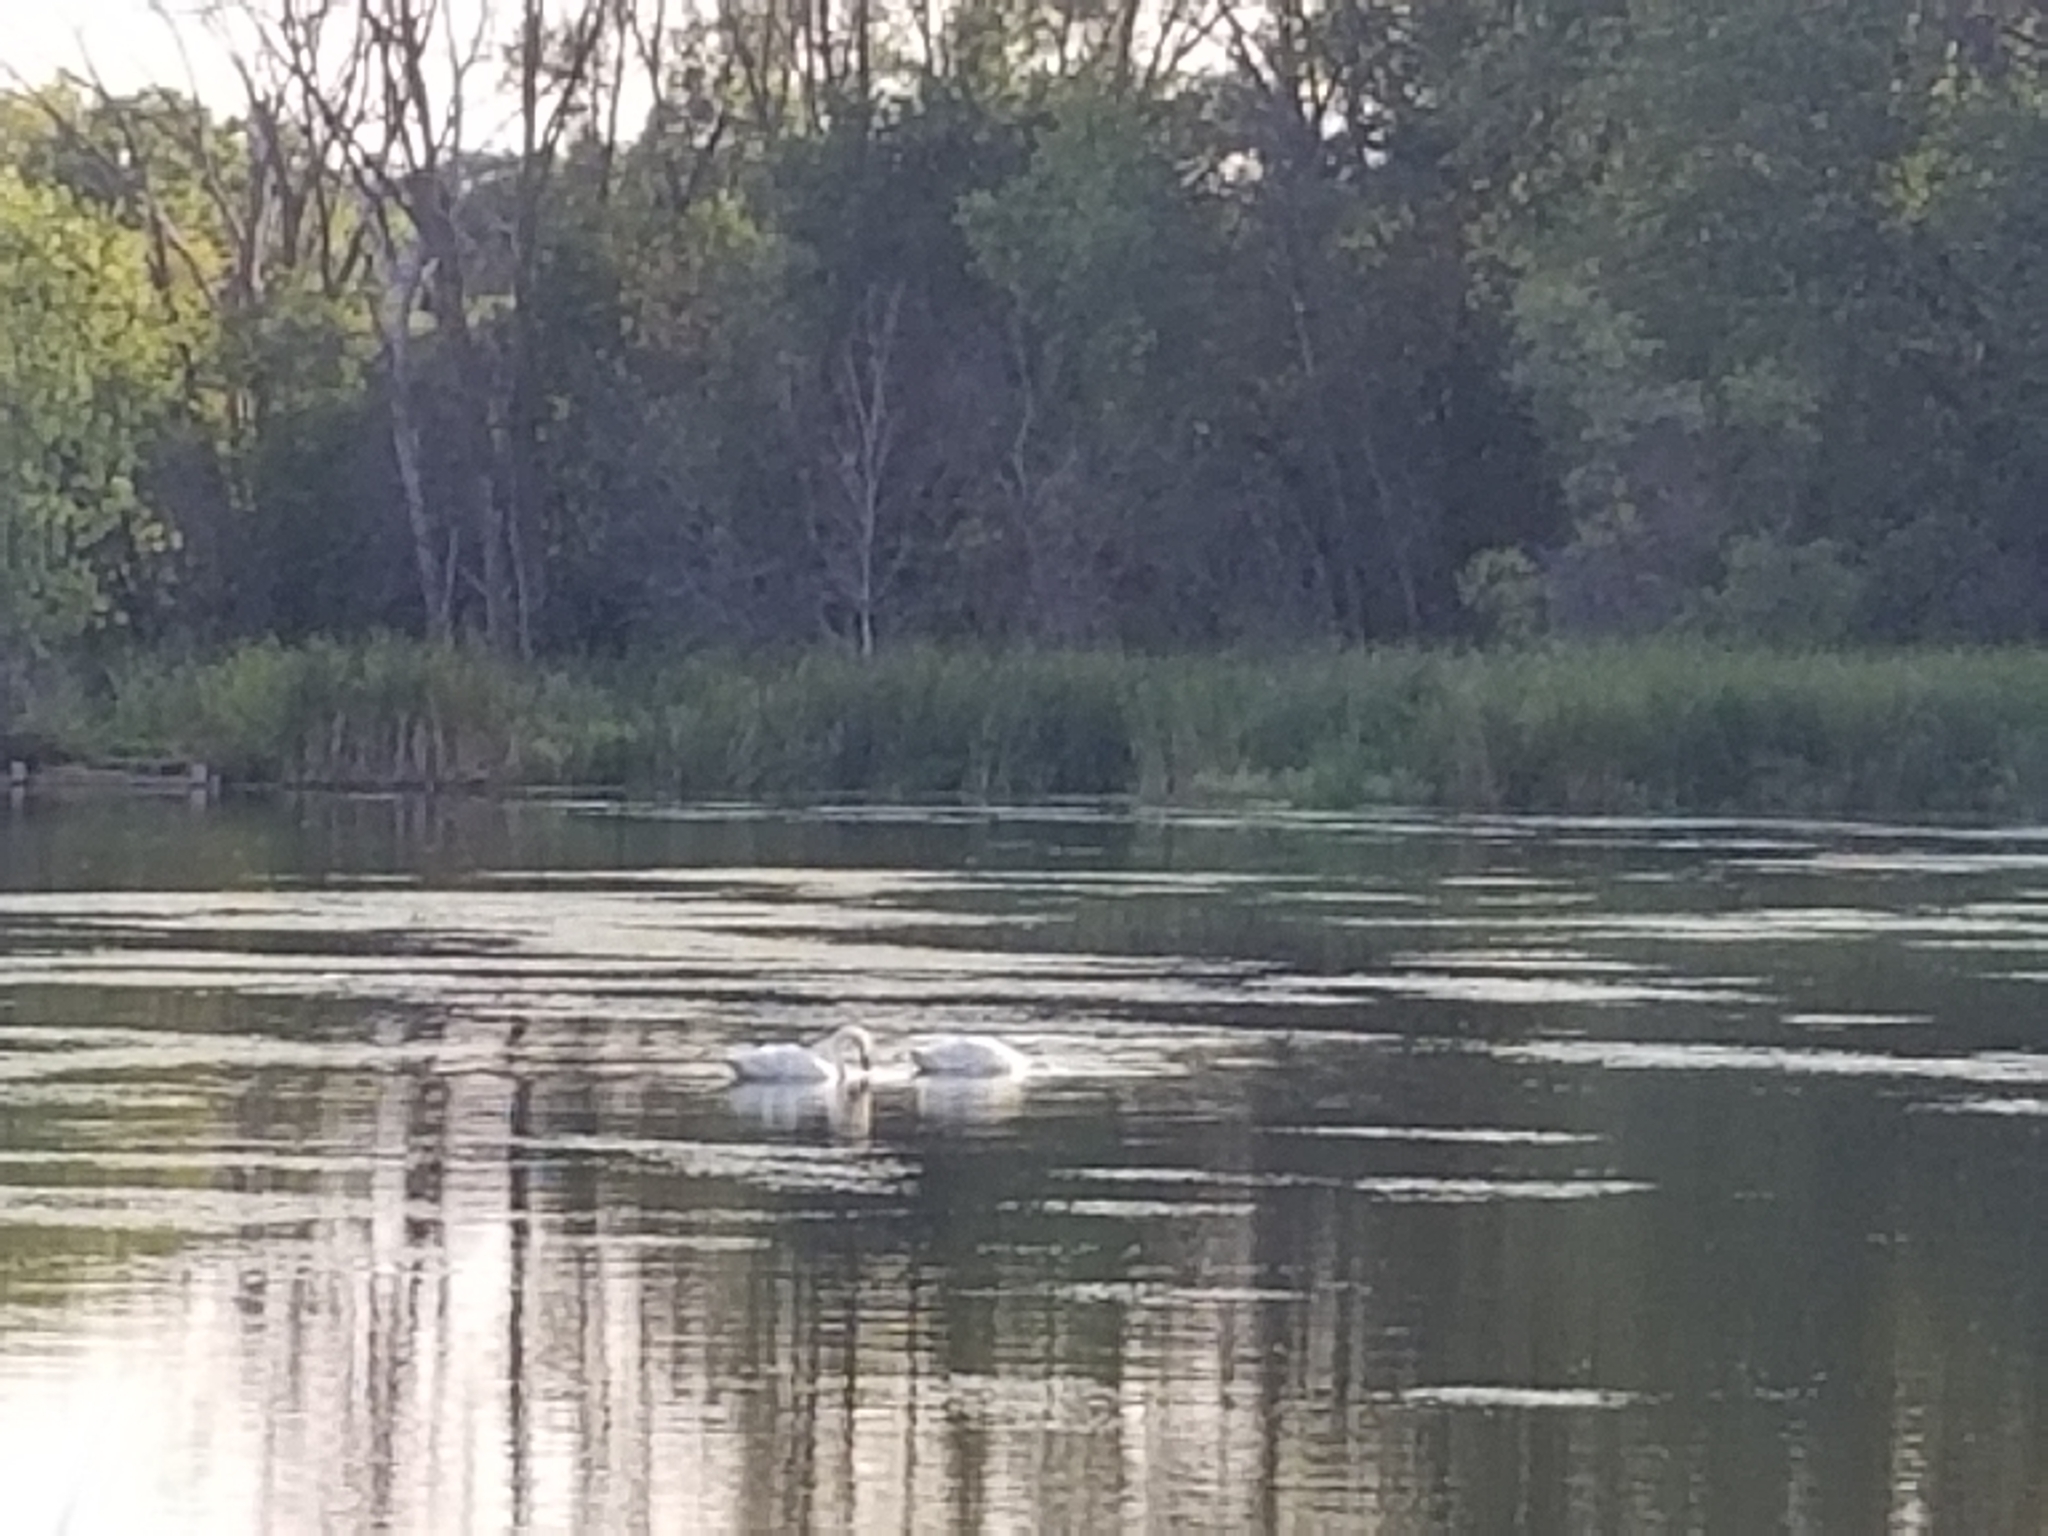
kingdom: Animalia
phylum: Chordata
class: Aves
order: Anseriformes
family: Anatidae
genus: Cygnus
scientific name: Cygnus buccinator
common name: Trumpeter swan
